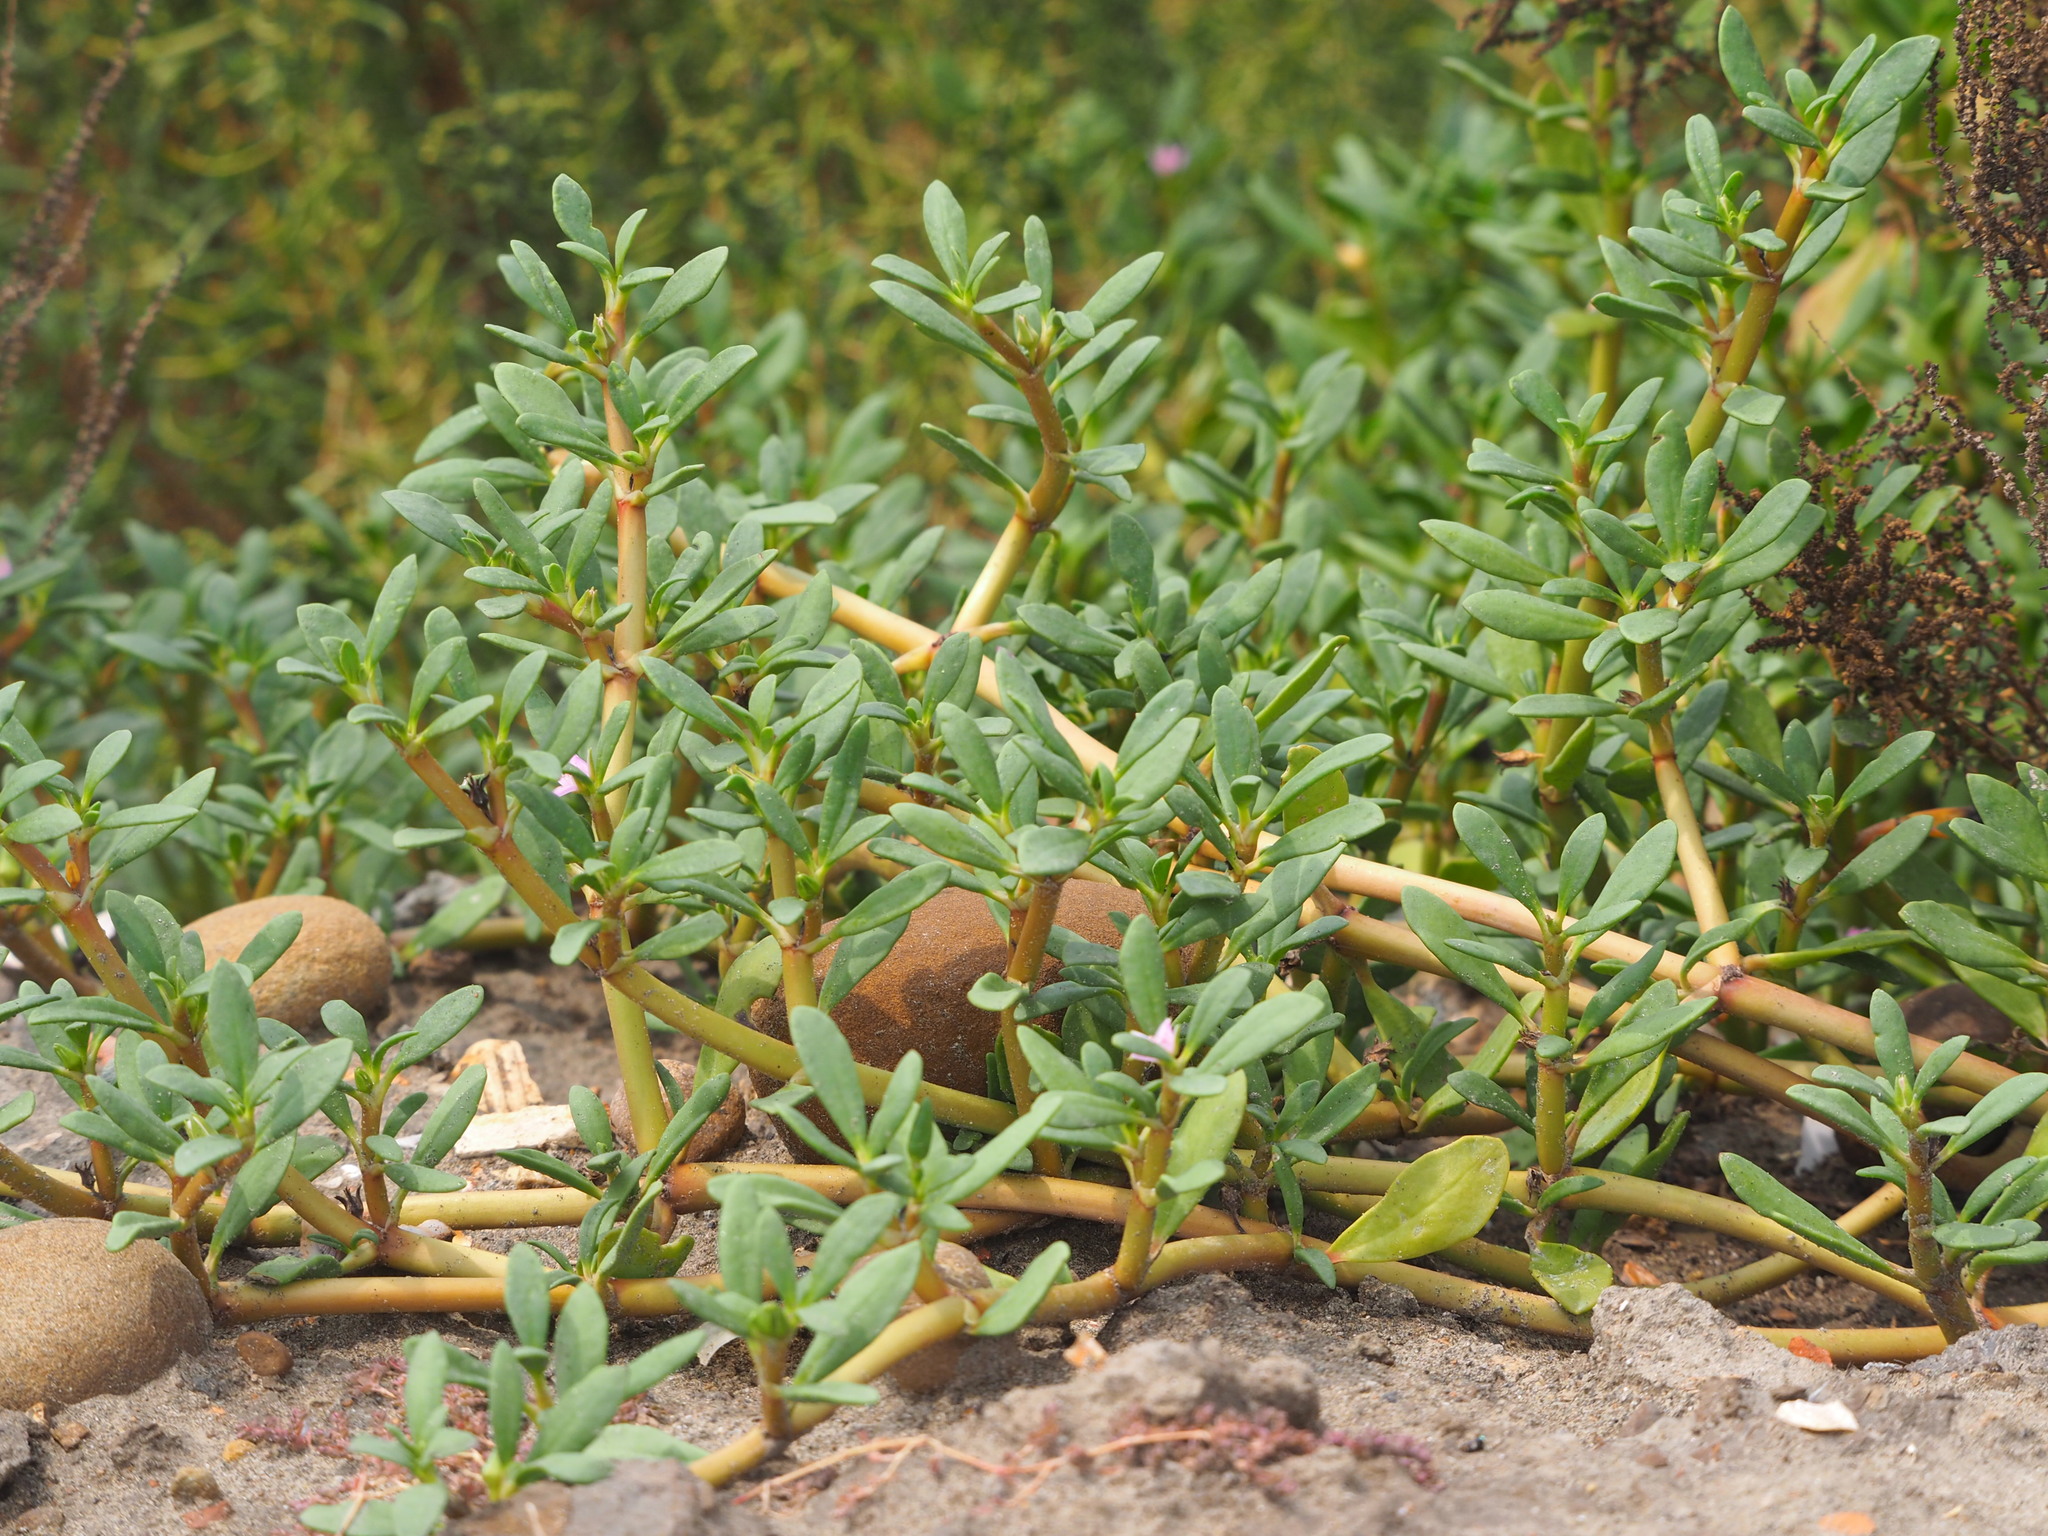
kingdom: Plantae
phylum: Tracheophyta
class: Magnoliopsida
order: Caryophyllales
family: Aizoaceae
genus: Sesuvium
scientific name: Sesuvium portulacastrum
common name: Sea-purslane
